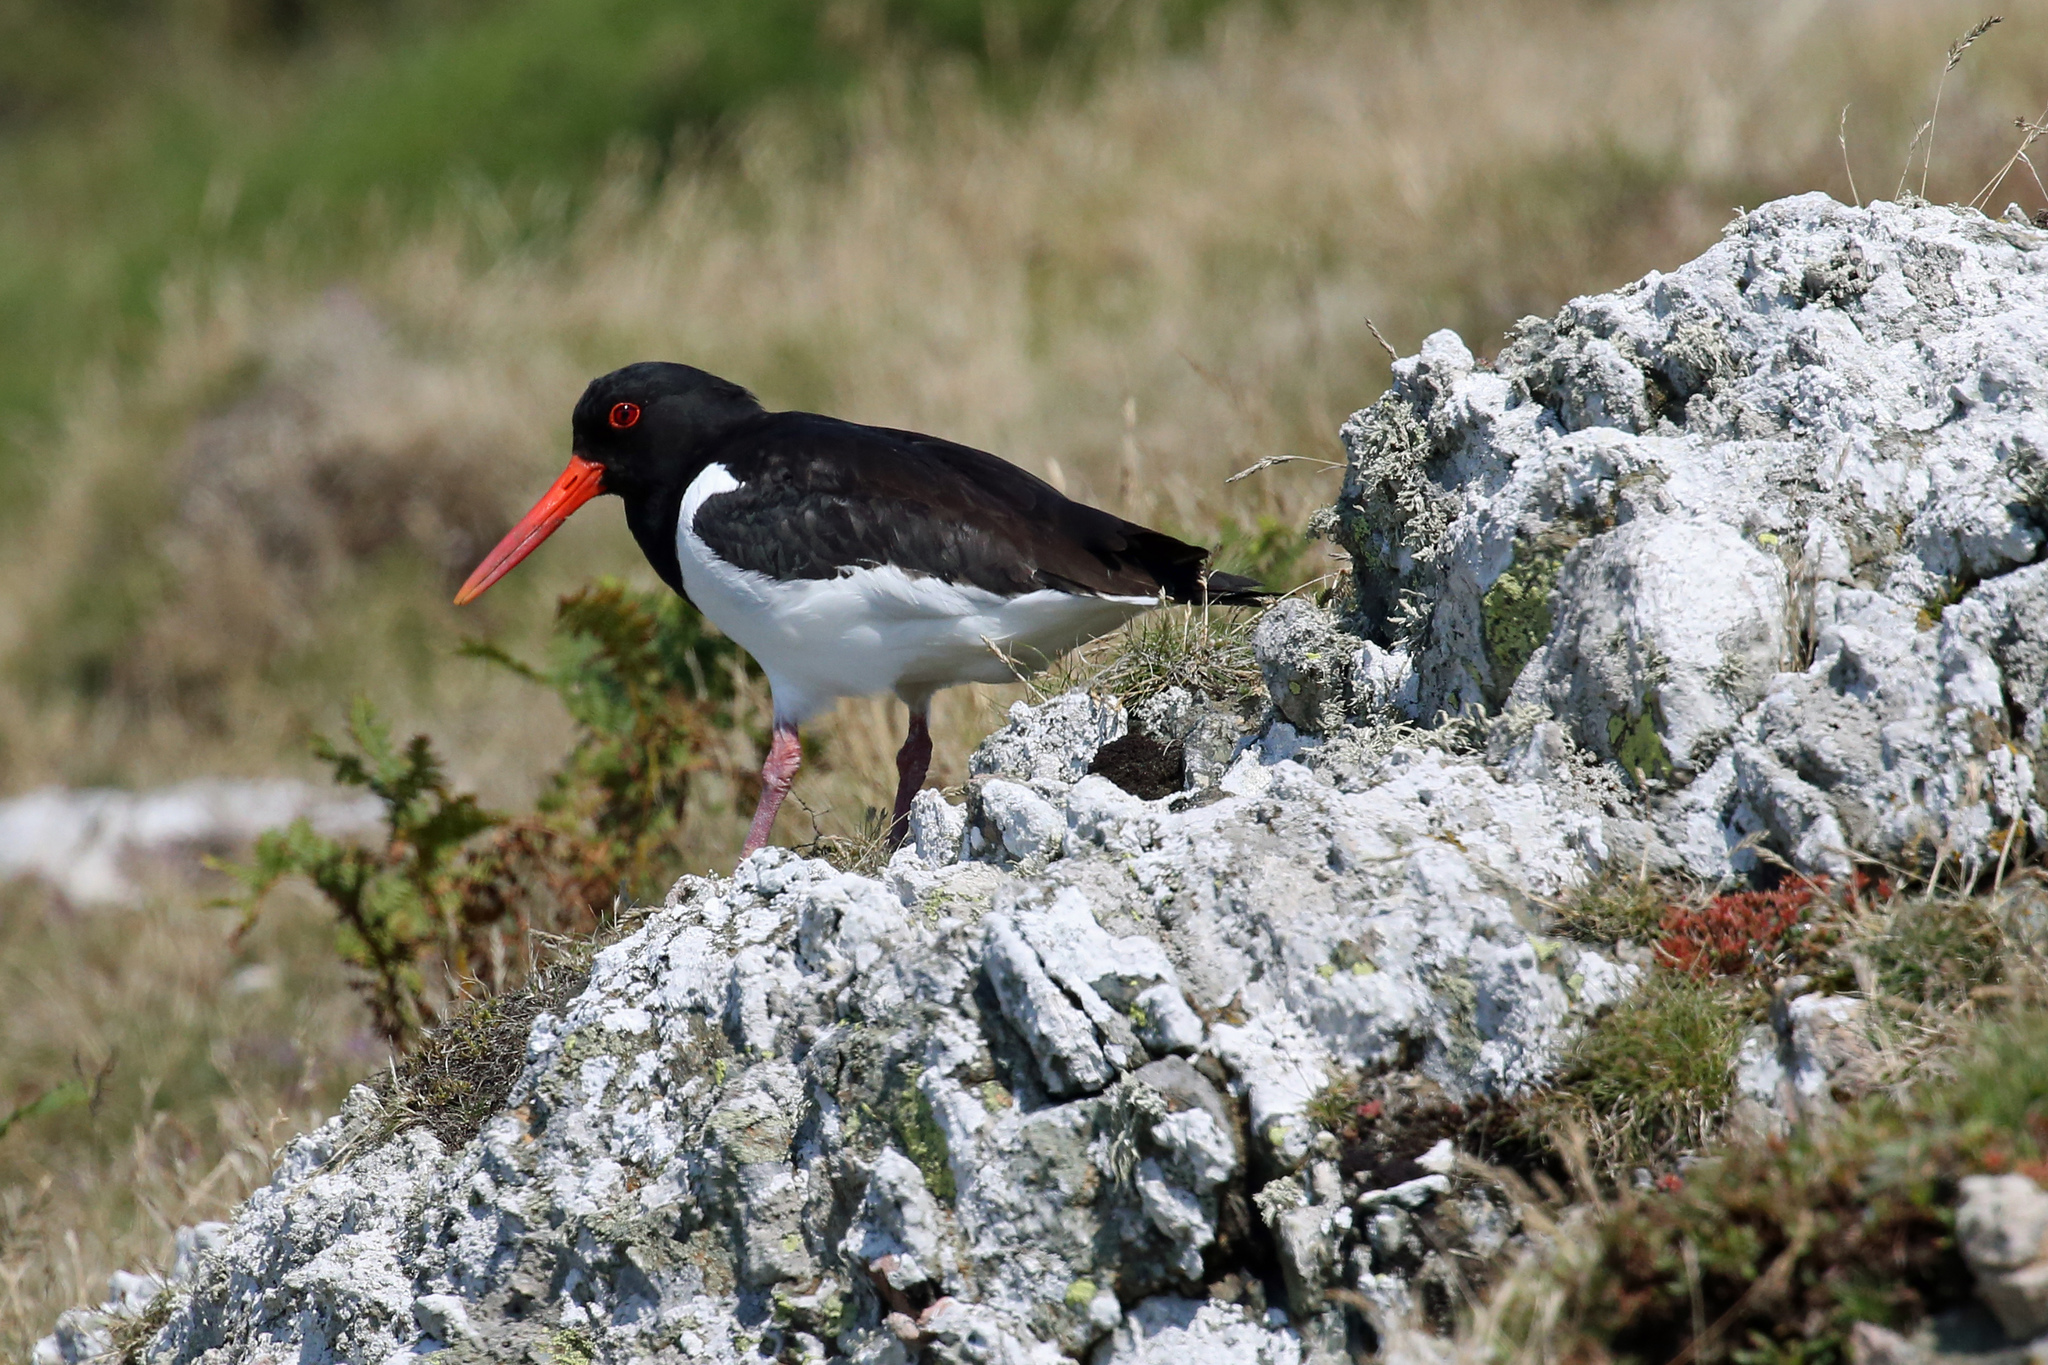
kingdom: Animalia
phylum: Chordata
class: Aves
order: Charadriiformes
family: Haematopodidae
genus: Haematopus
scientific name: Haematopus ostralegus
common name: Eurasian oystercatcher
